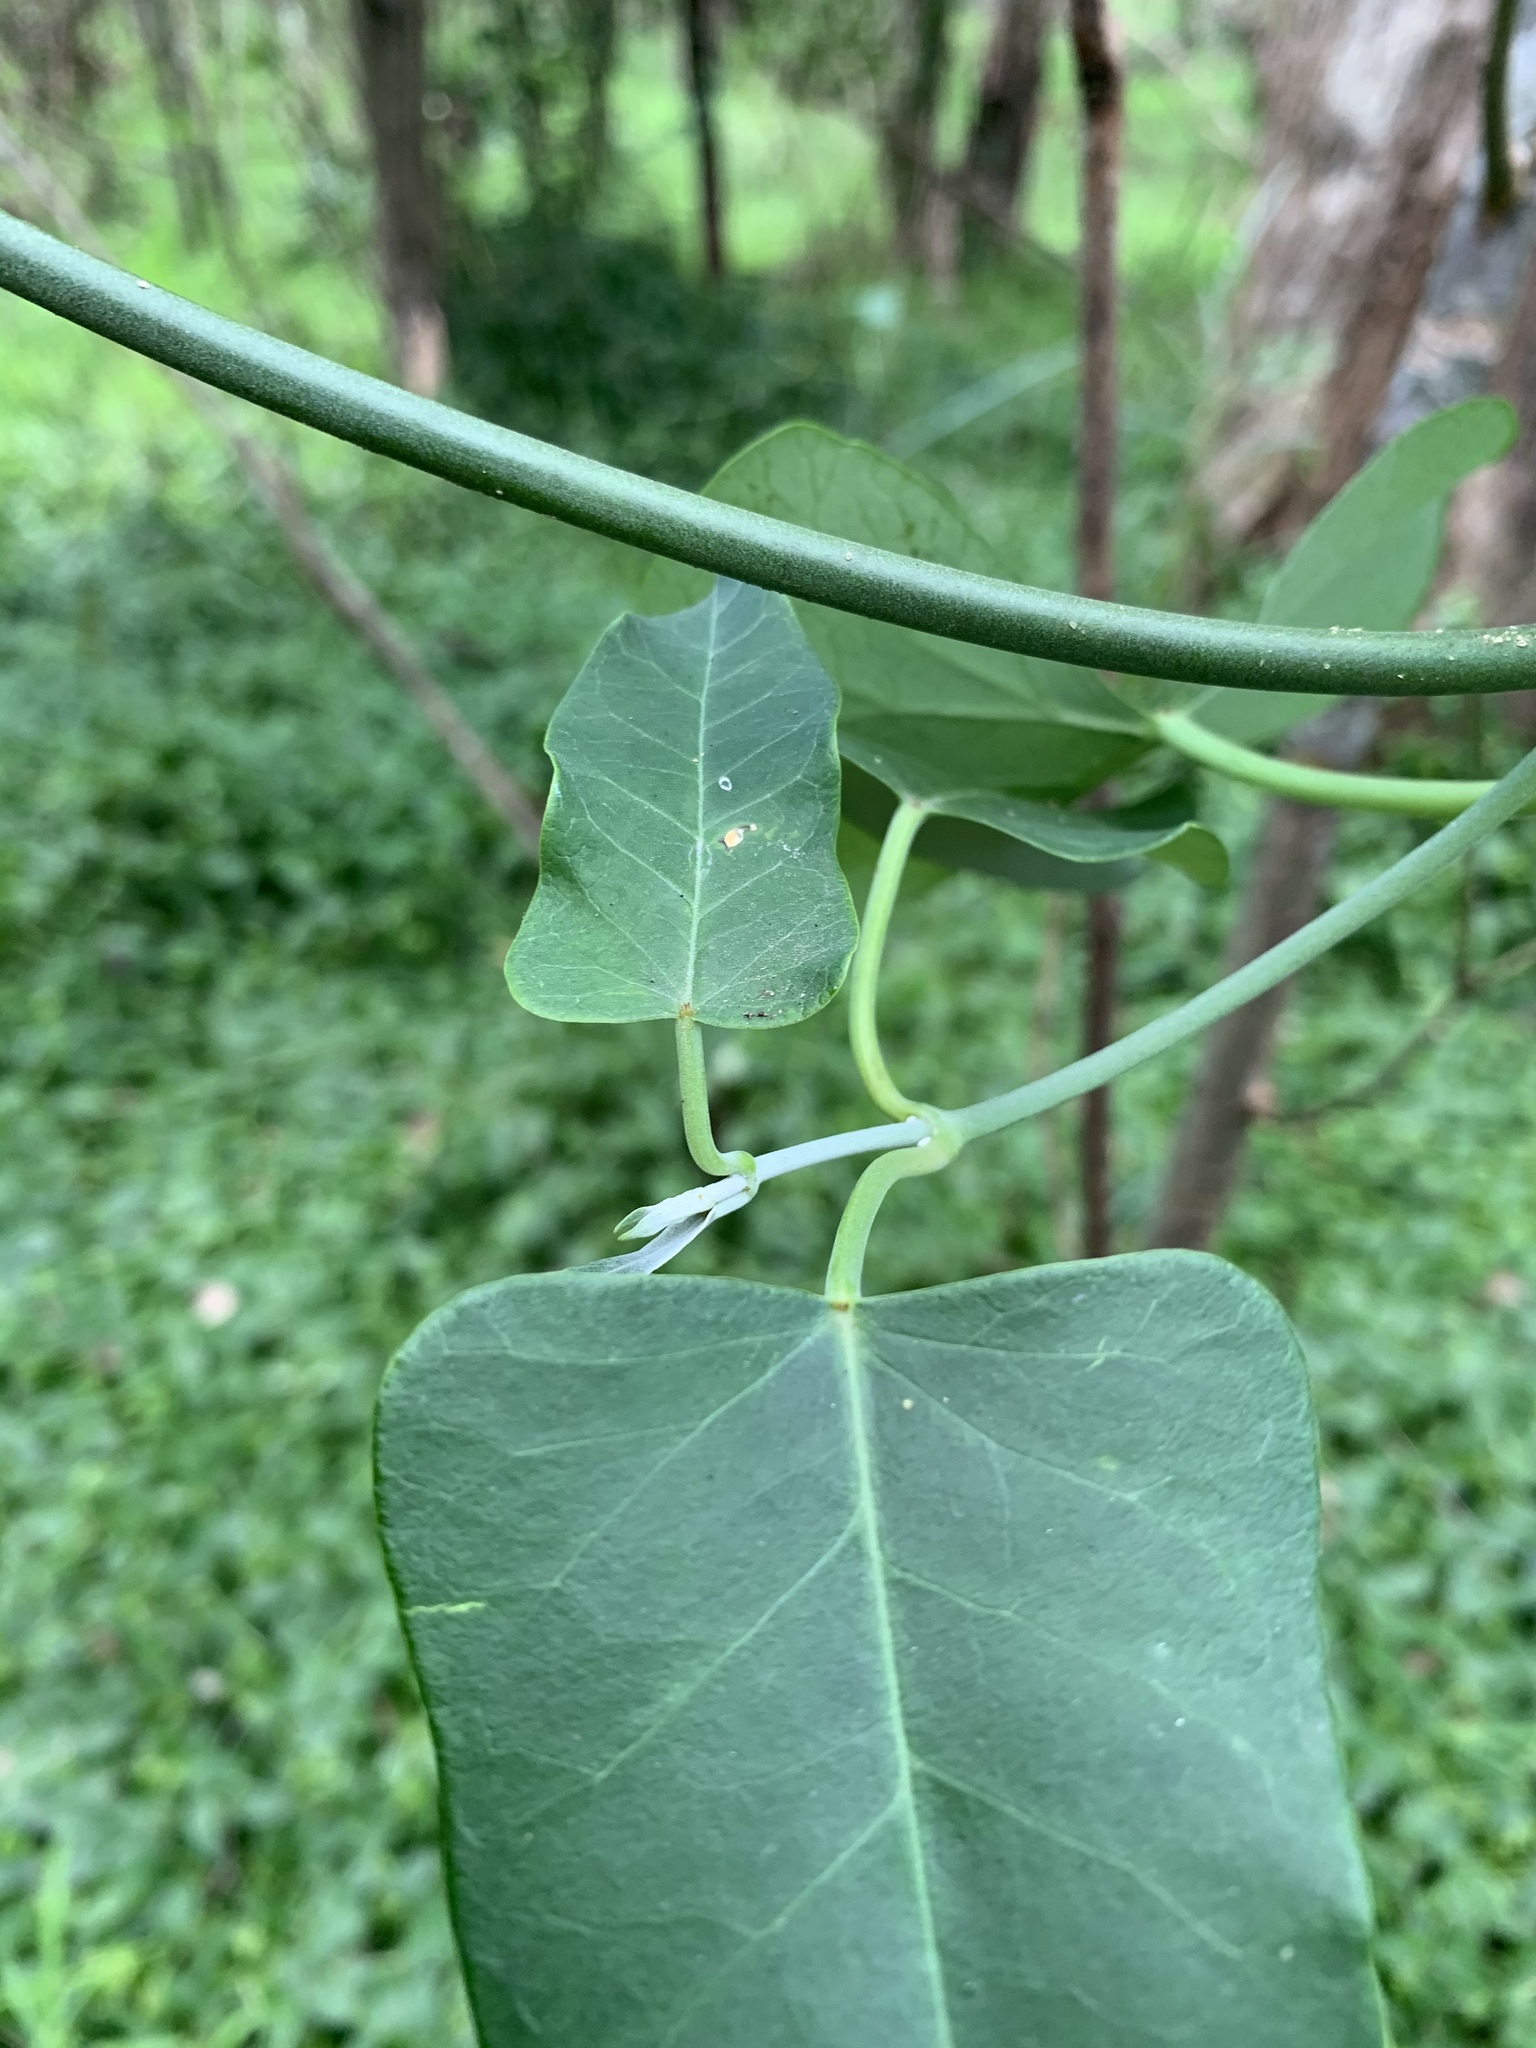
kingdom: Plantae
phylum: Tracheophyta
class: Magnoliopsida
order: Gentianales
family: Apocynaceae
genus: Araujia
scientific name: Araujia sericifera
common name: White bladderflower
